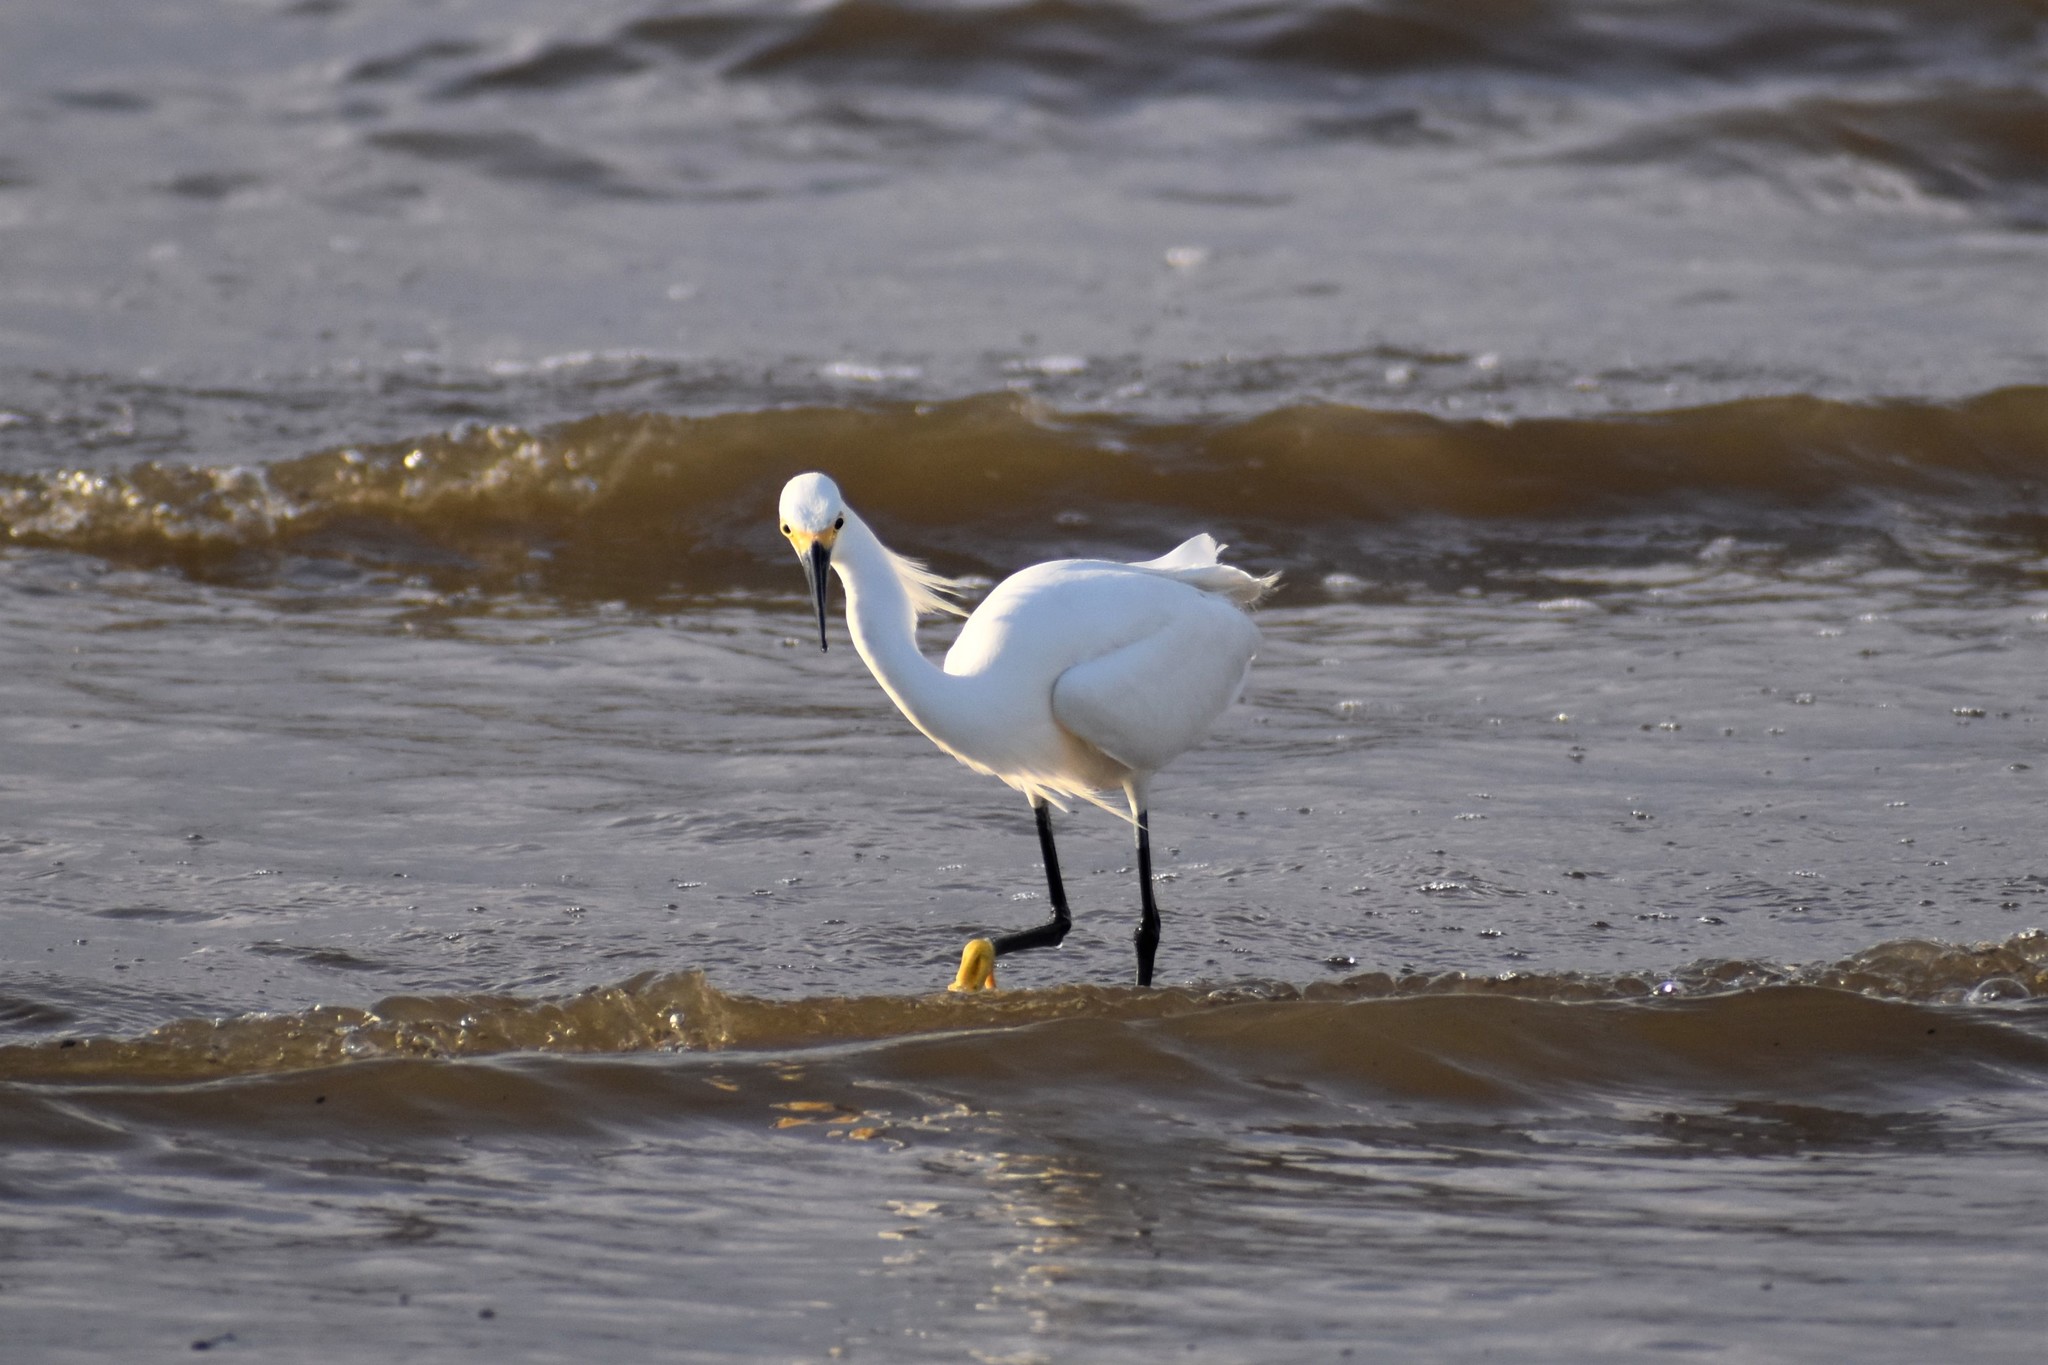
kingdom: Animalia
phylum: Chordata
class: Aves
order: Pelecaniformes
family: Ardeidae
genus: Egretta
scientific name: Egretta thula
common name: Snowy egret
